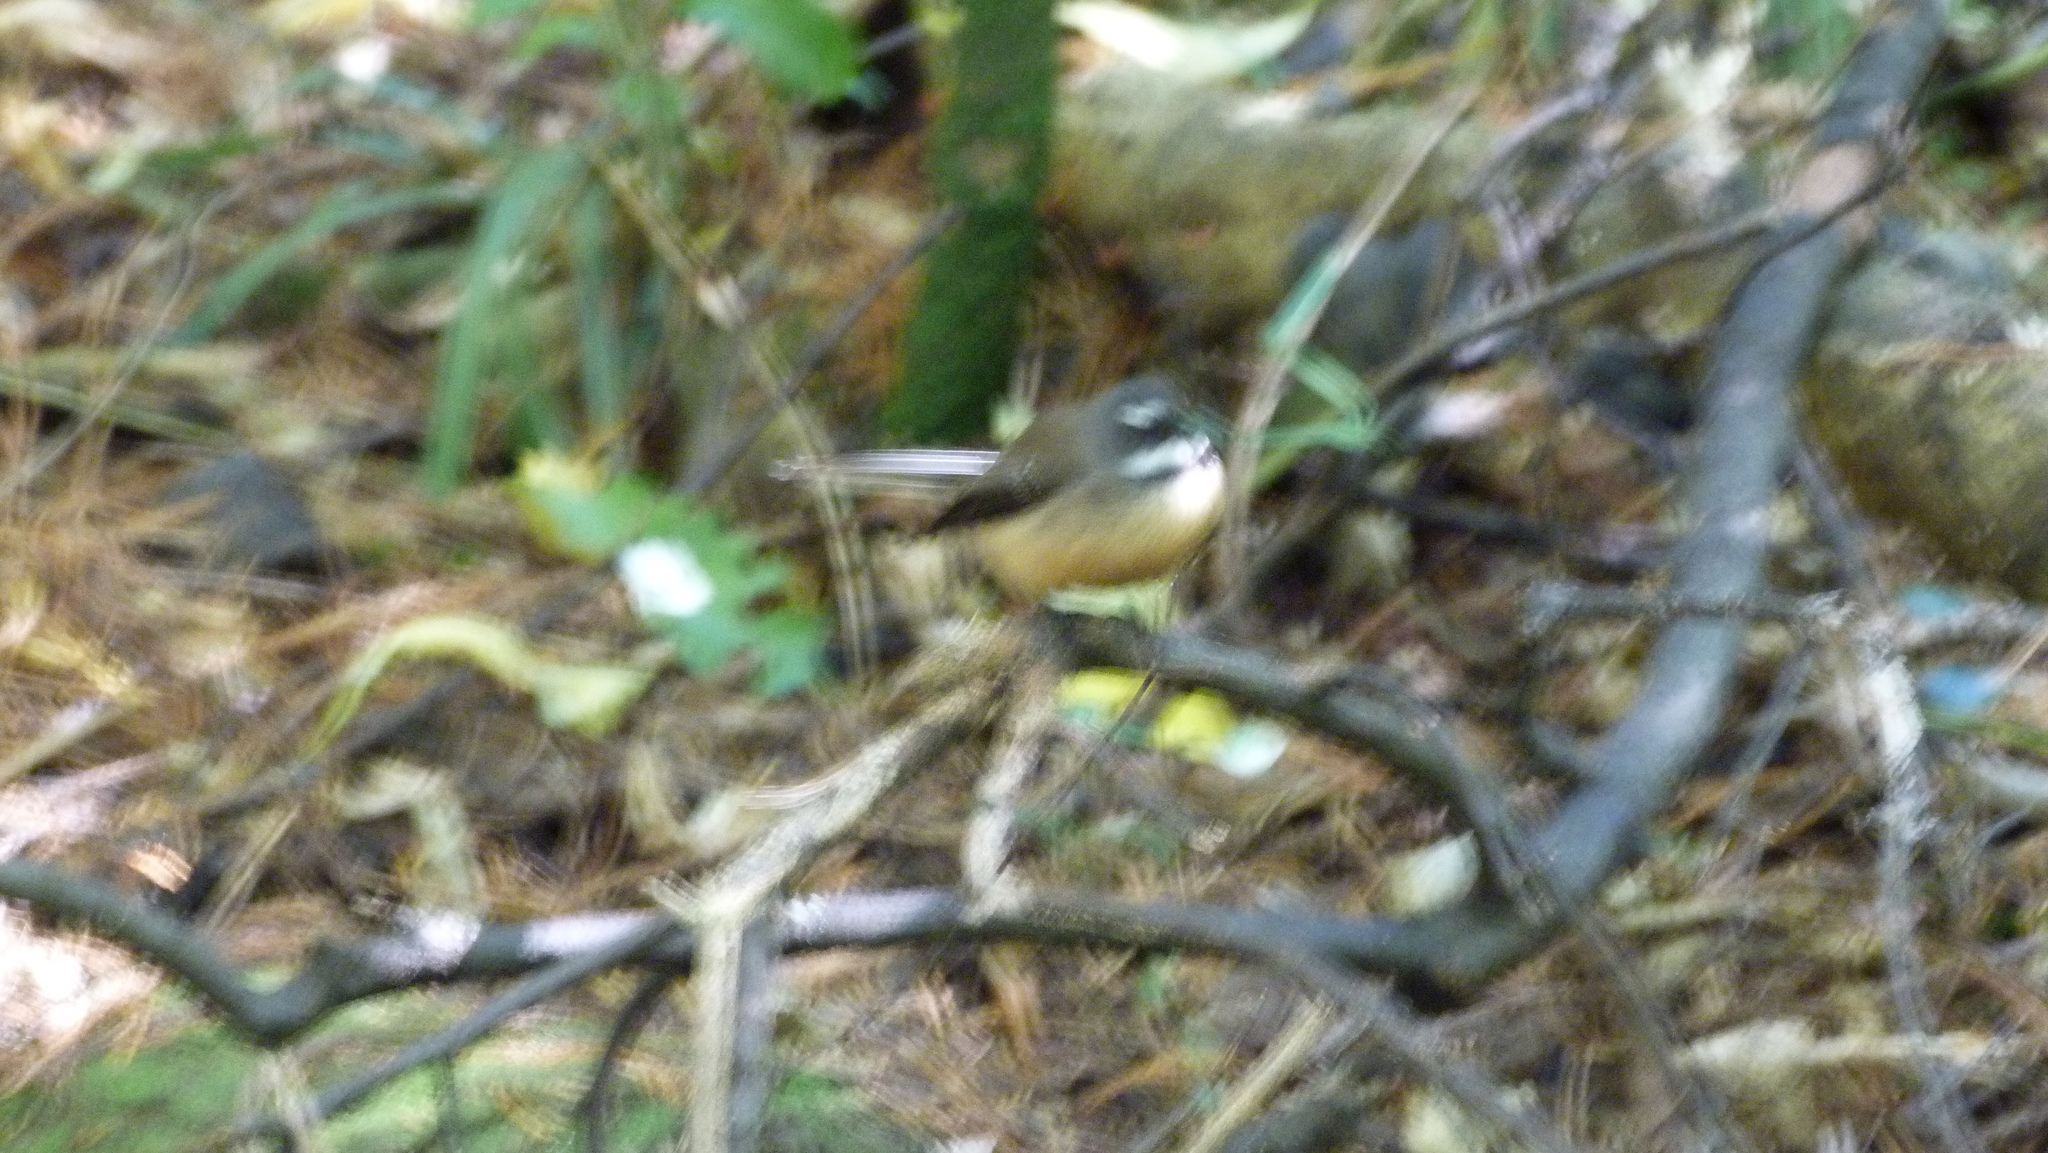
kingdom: Animalia
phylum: Chordata
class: Aves
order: Passeriformes
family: Rhipiduridae
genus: Rhipidura
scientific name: Rhipidura fuliginosa
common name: New zealand fantail
